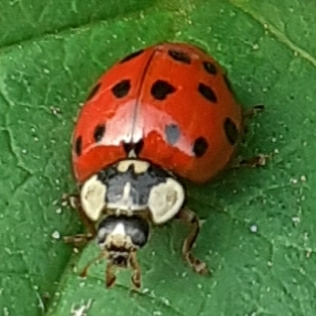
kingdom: Animalia
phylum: Arthropoda
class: Insecta
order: Coleoptera
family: Coccinellidae
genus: Harmonia
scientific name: Harmonia axyridis
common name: Harlequin ladybird
